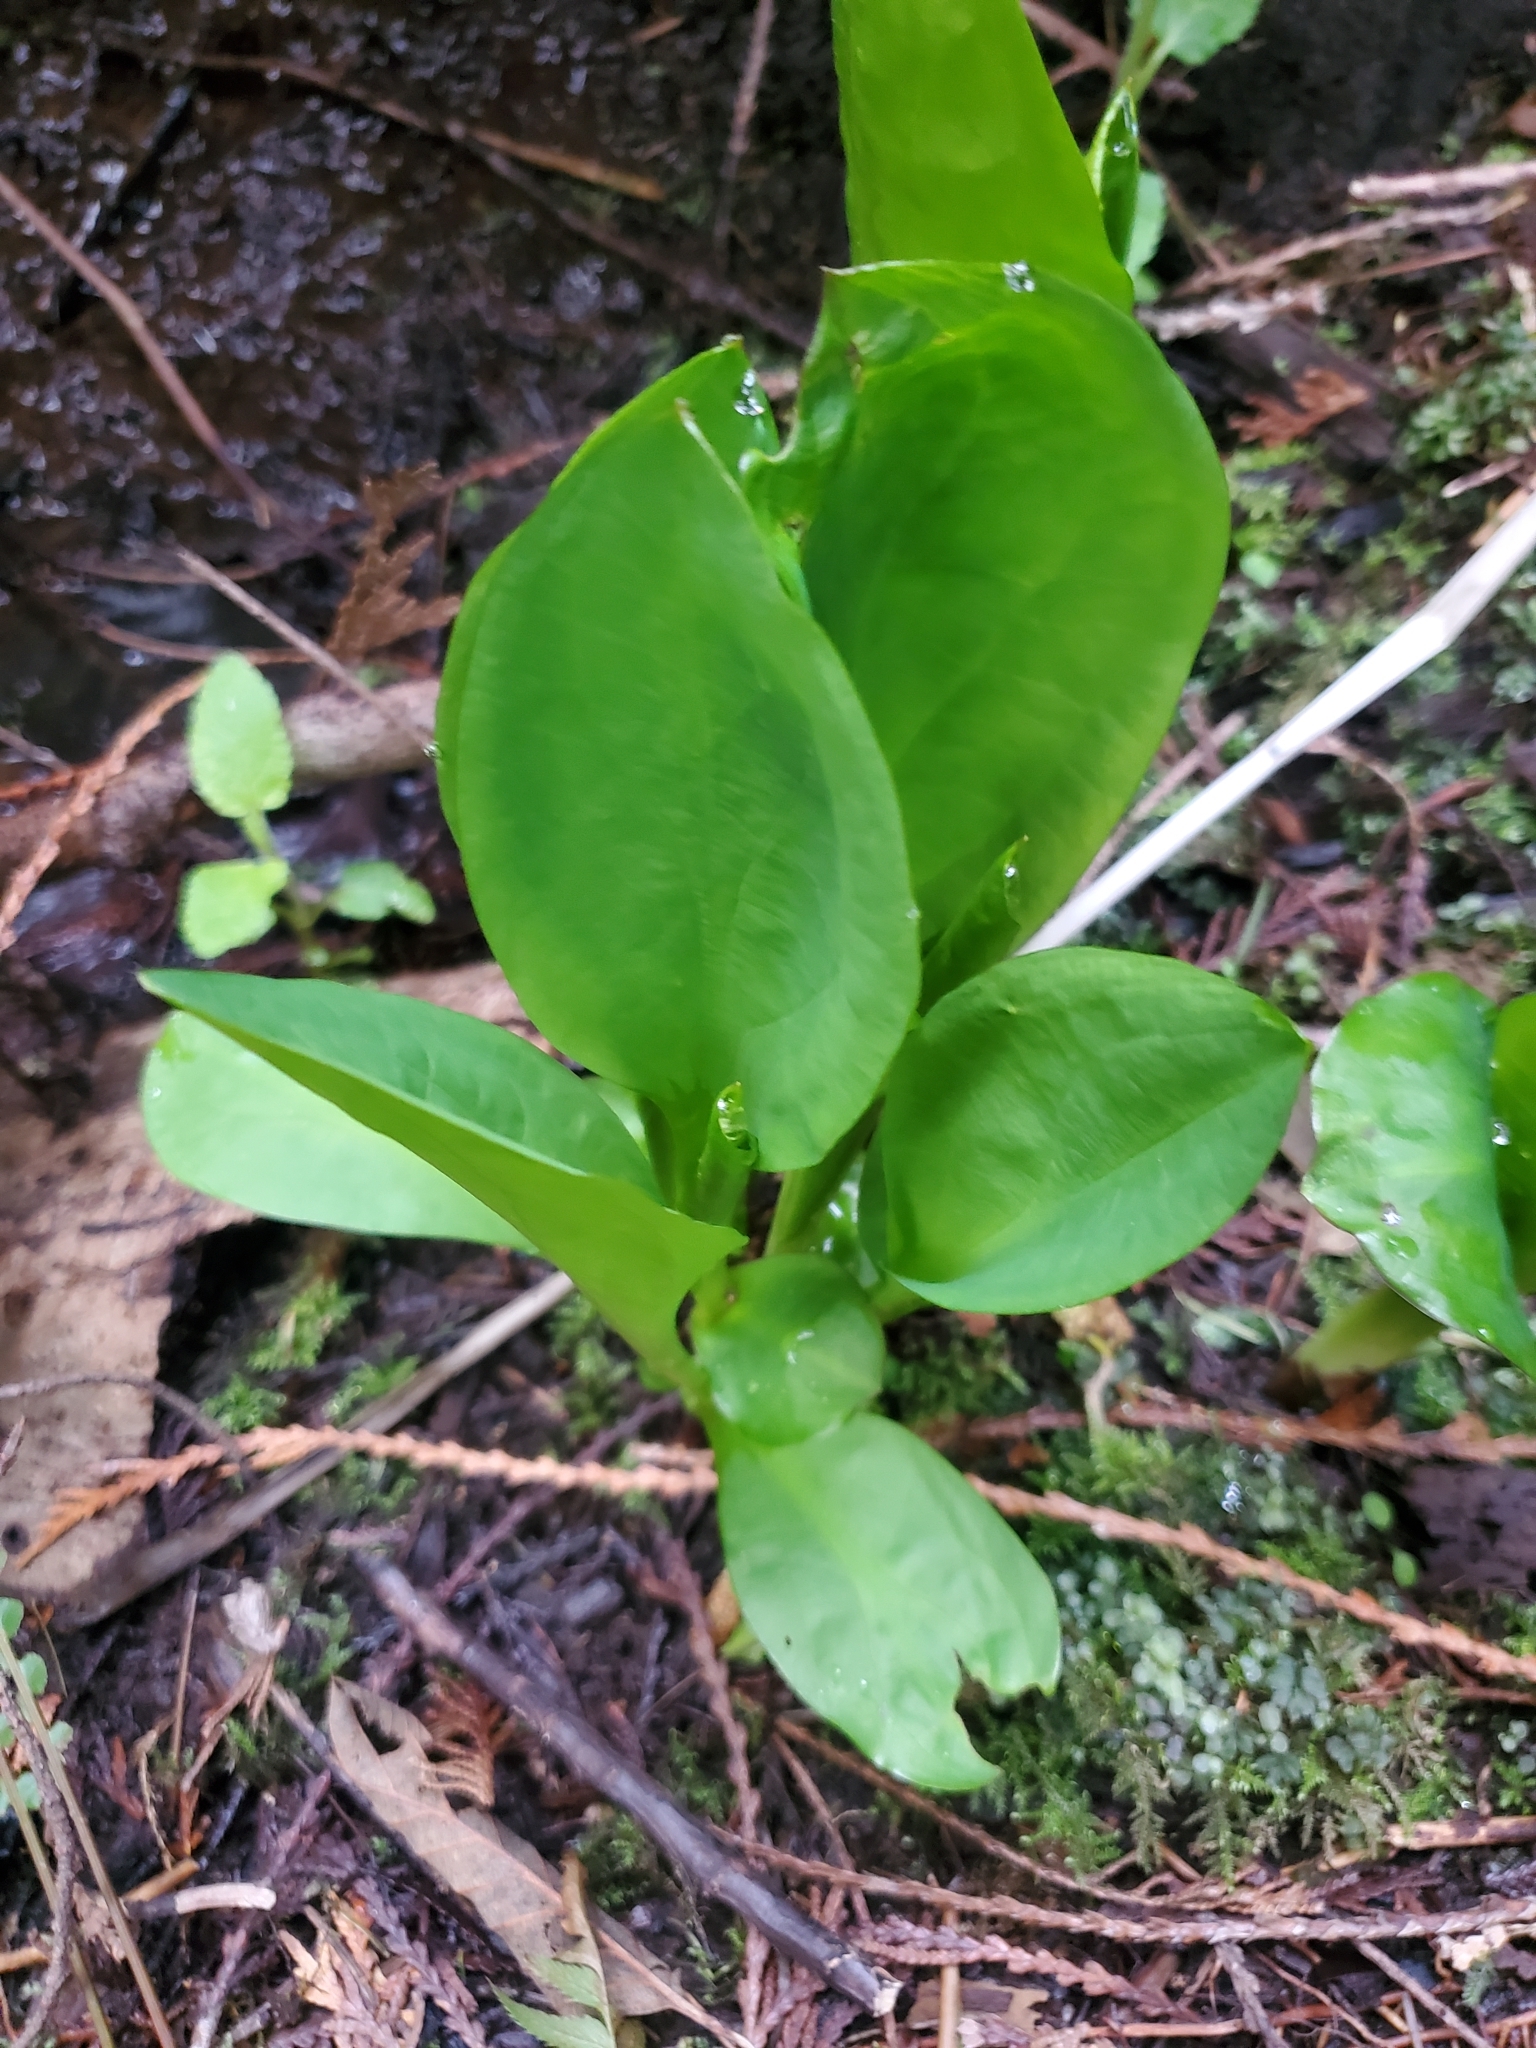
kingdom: Plantae
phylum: Tracheophyta
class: Liliopsida
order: Alismatales
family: Araceae
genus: Lysichiton
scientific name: Lysichiton americanus
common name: American skunk cabbage
